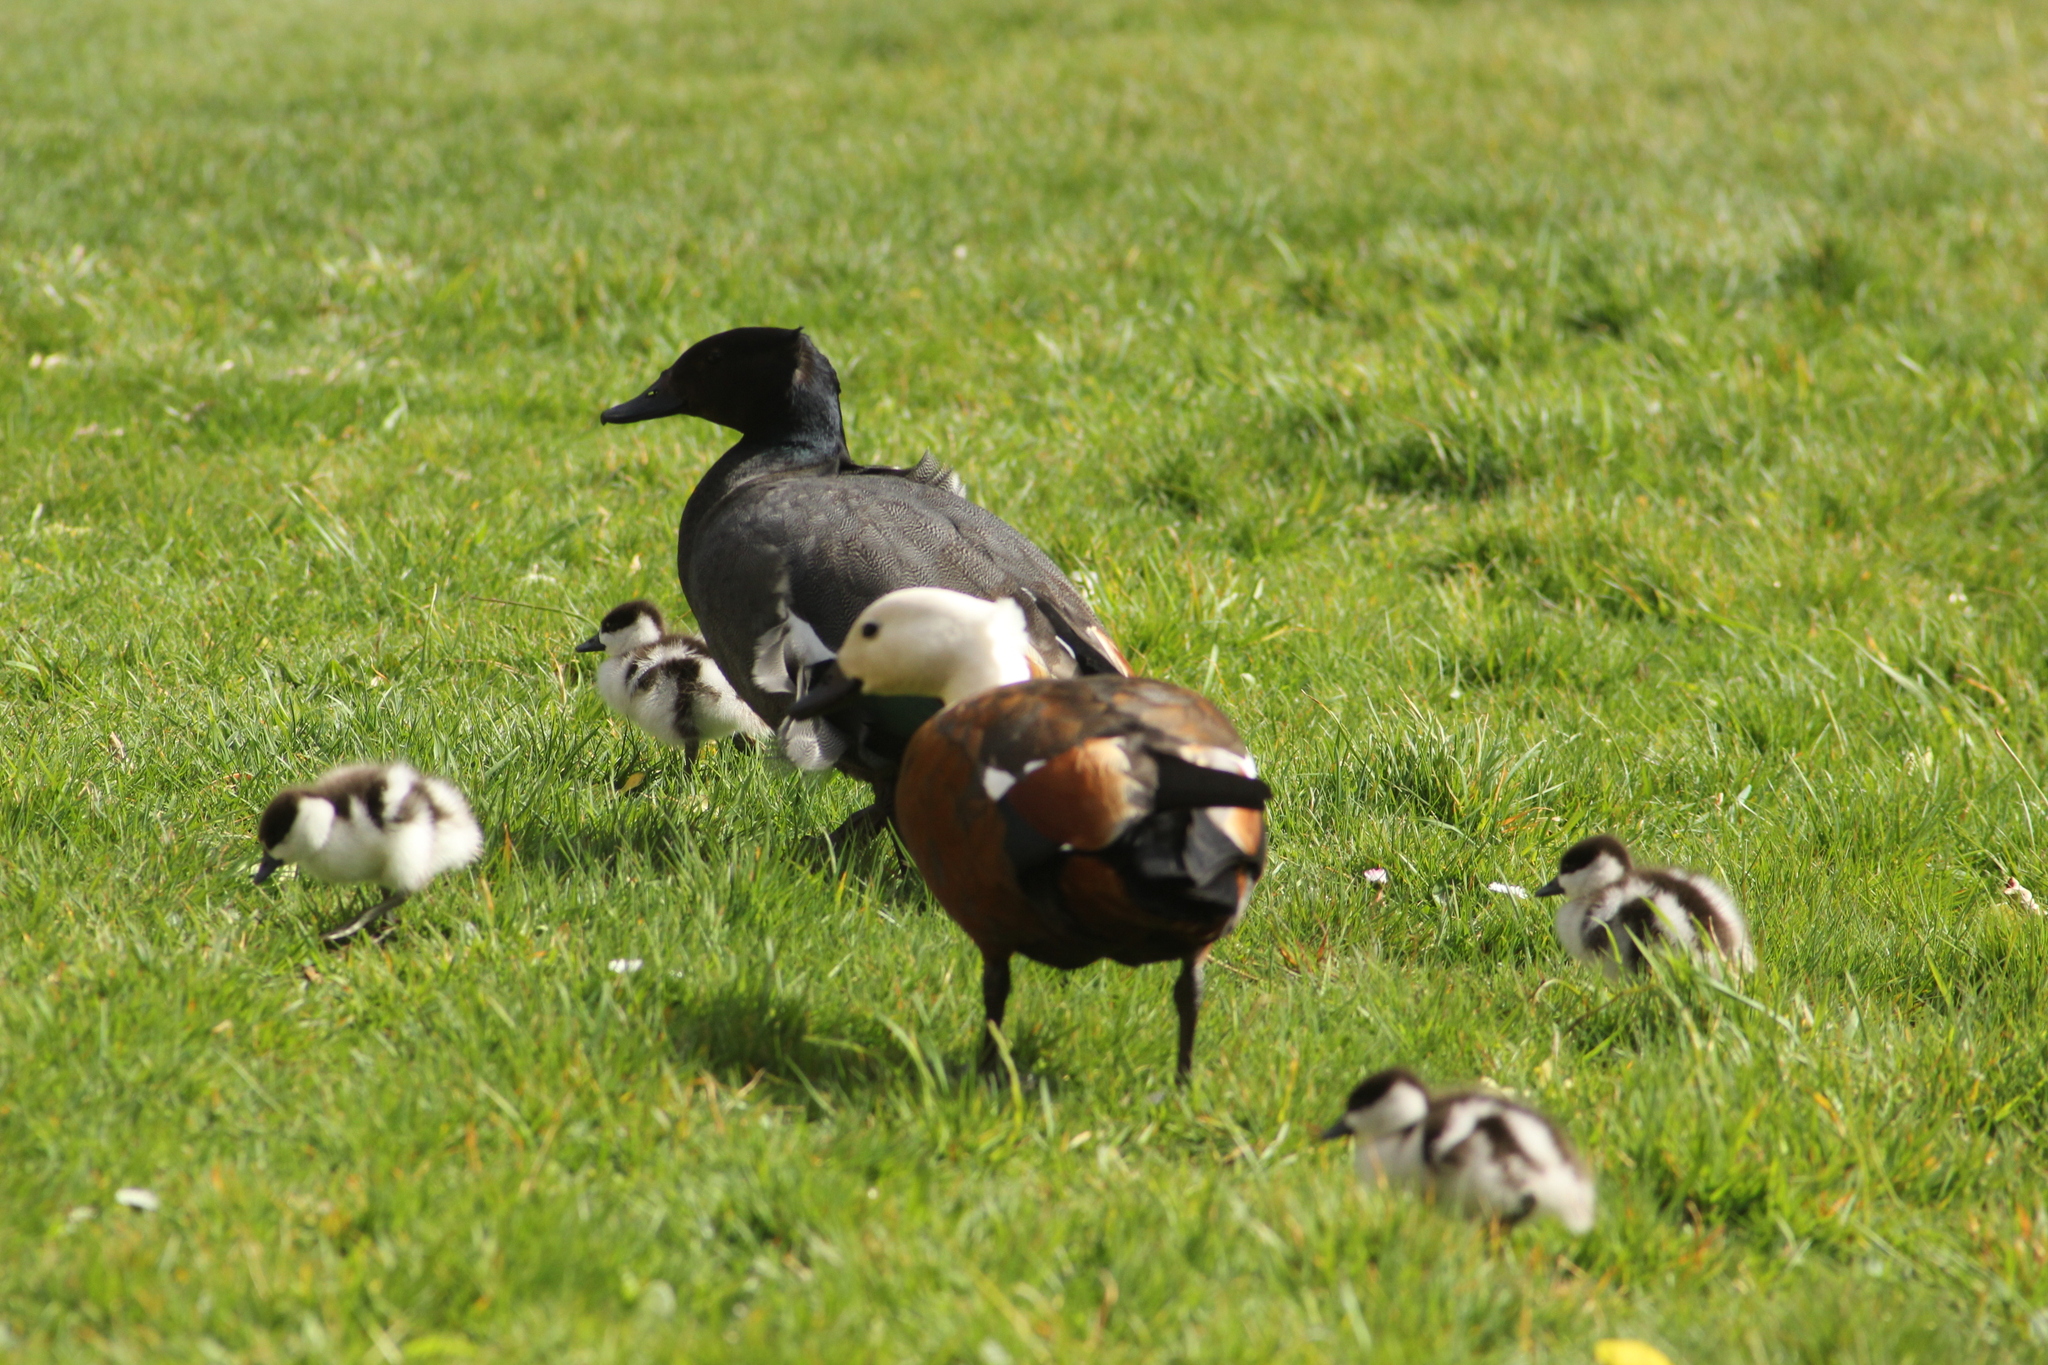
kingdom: Animalia
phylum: Chordata
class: Aves
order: Anseriformes
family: Anatidae
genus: Tadorna
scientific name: Tadorna variegata
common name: Paradise shelduck
